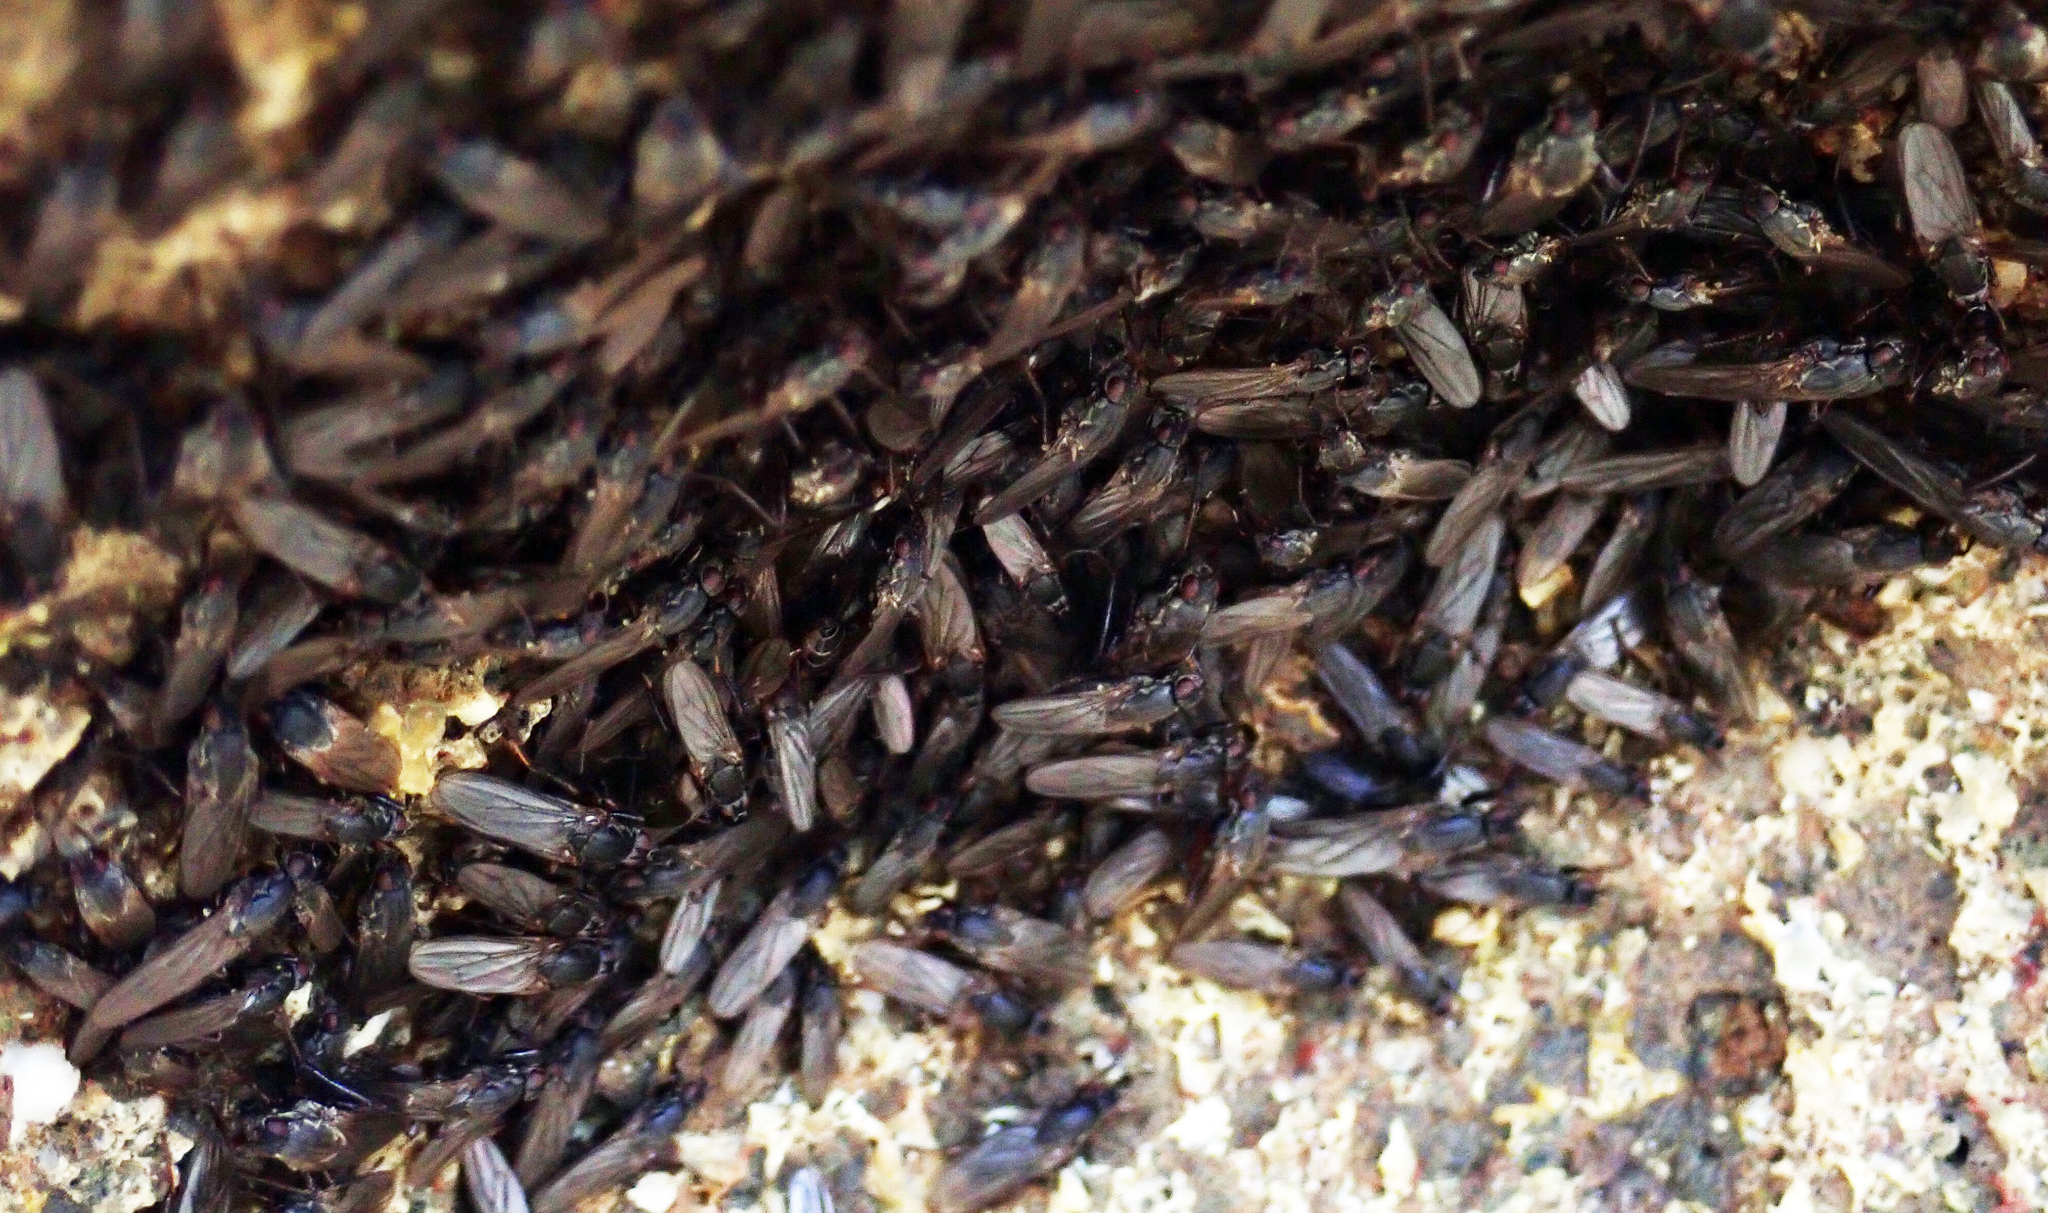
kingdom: Animalia
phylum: Arthropoda
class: Insecta
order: Diptera
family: Coelopidae
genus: Chaetocoelopa
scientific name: Chaetocoelopa littoralis
